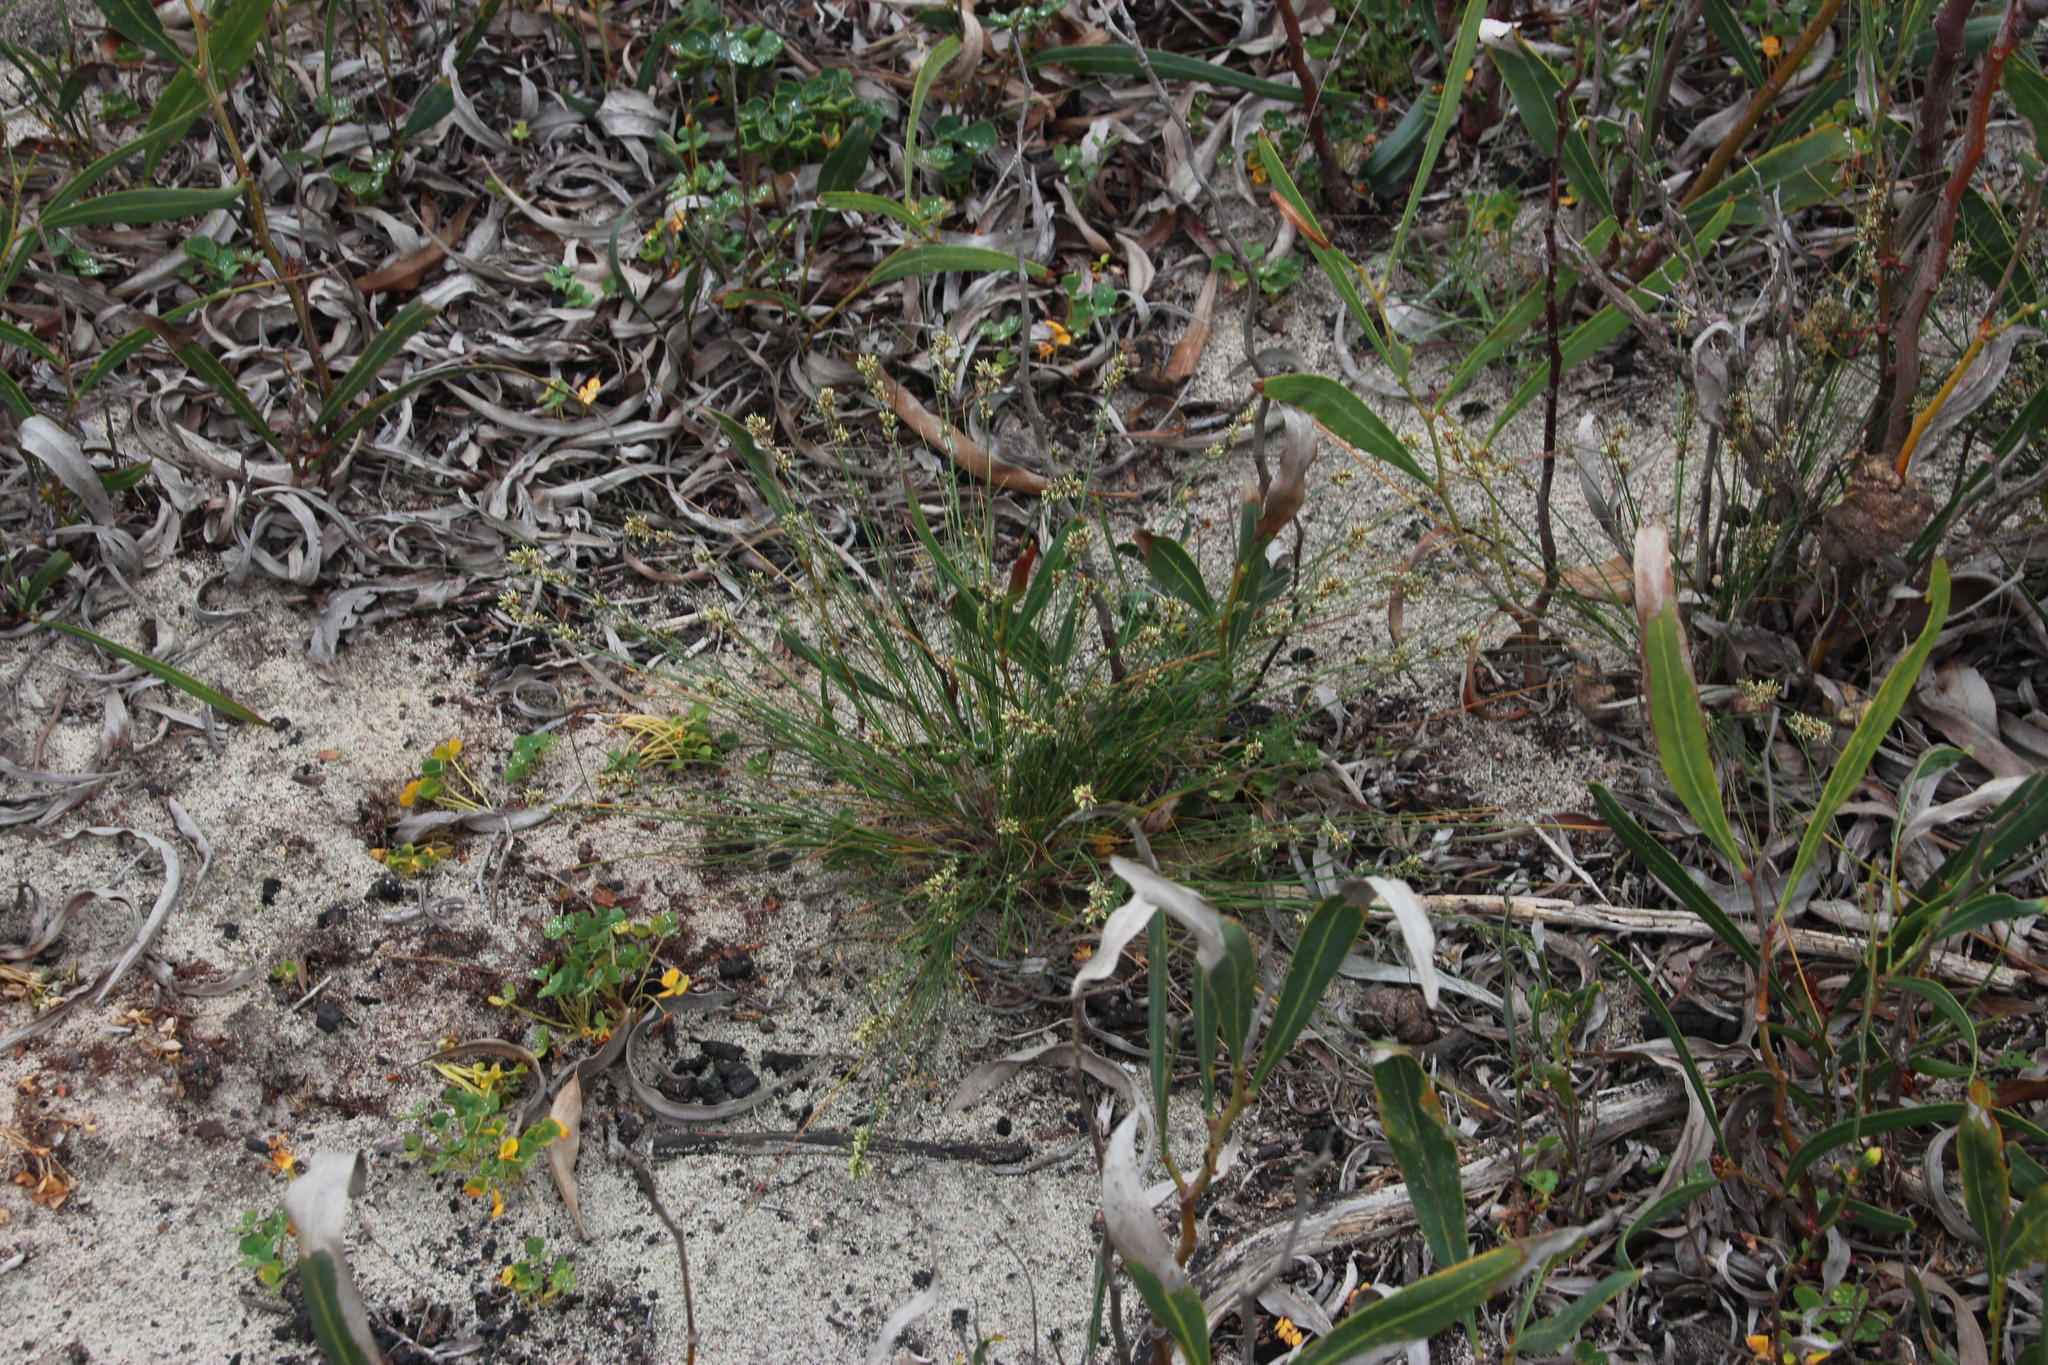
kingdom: Plantae
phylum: Tracheophyta
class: Liliopsida
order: Poales
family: Cyperaceae
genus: Ficinia
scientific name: Ficinia bulbosa
